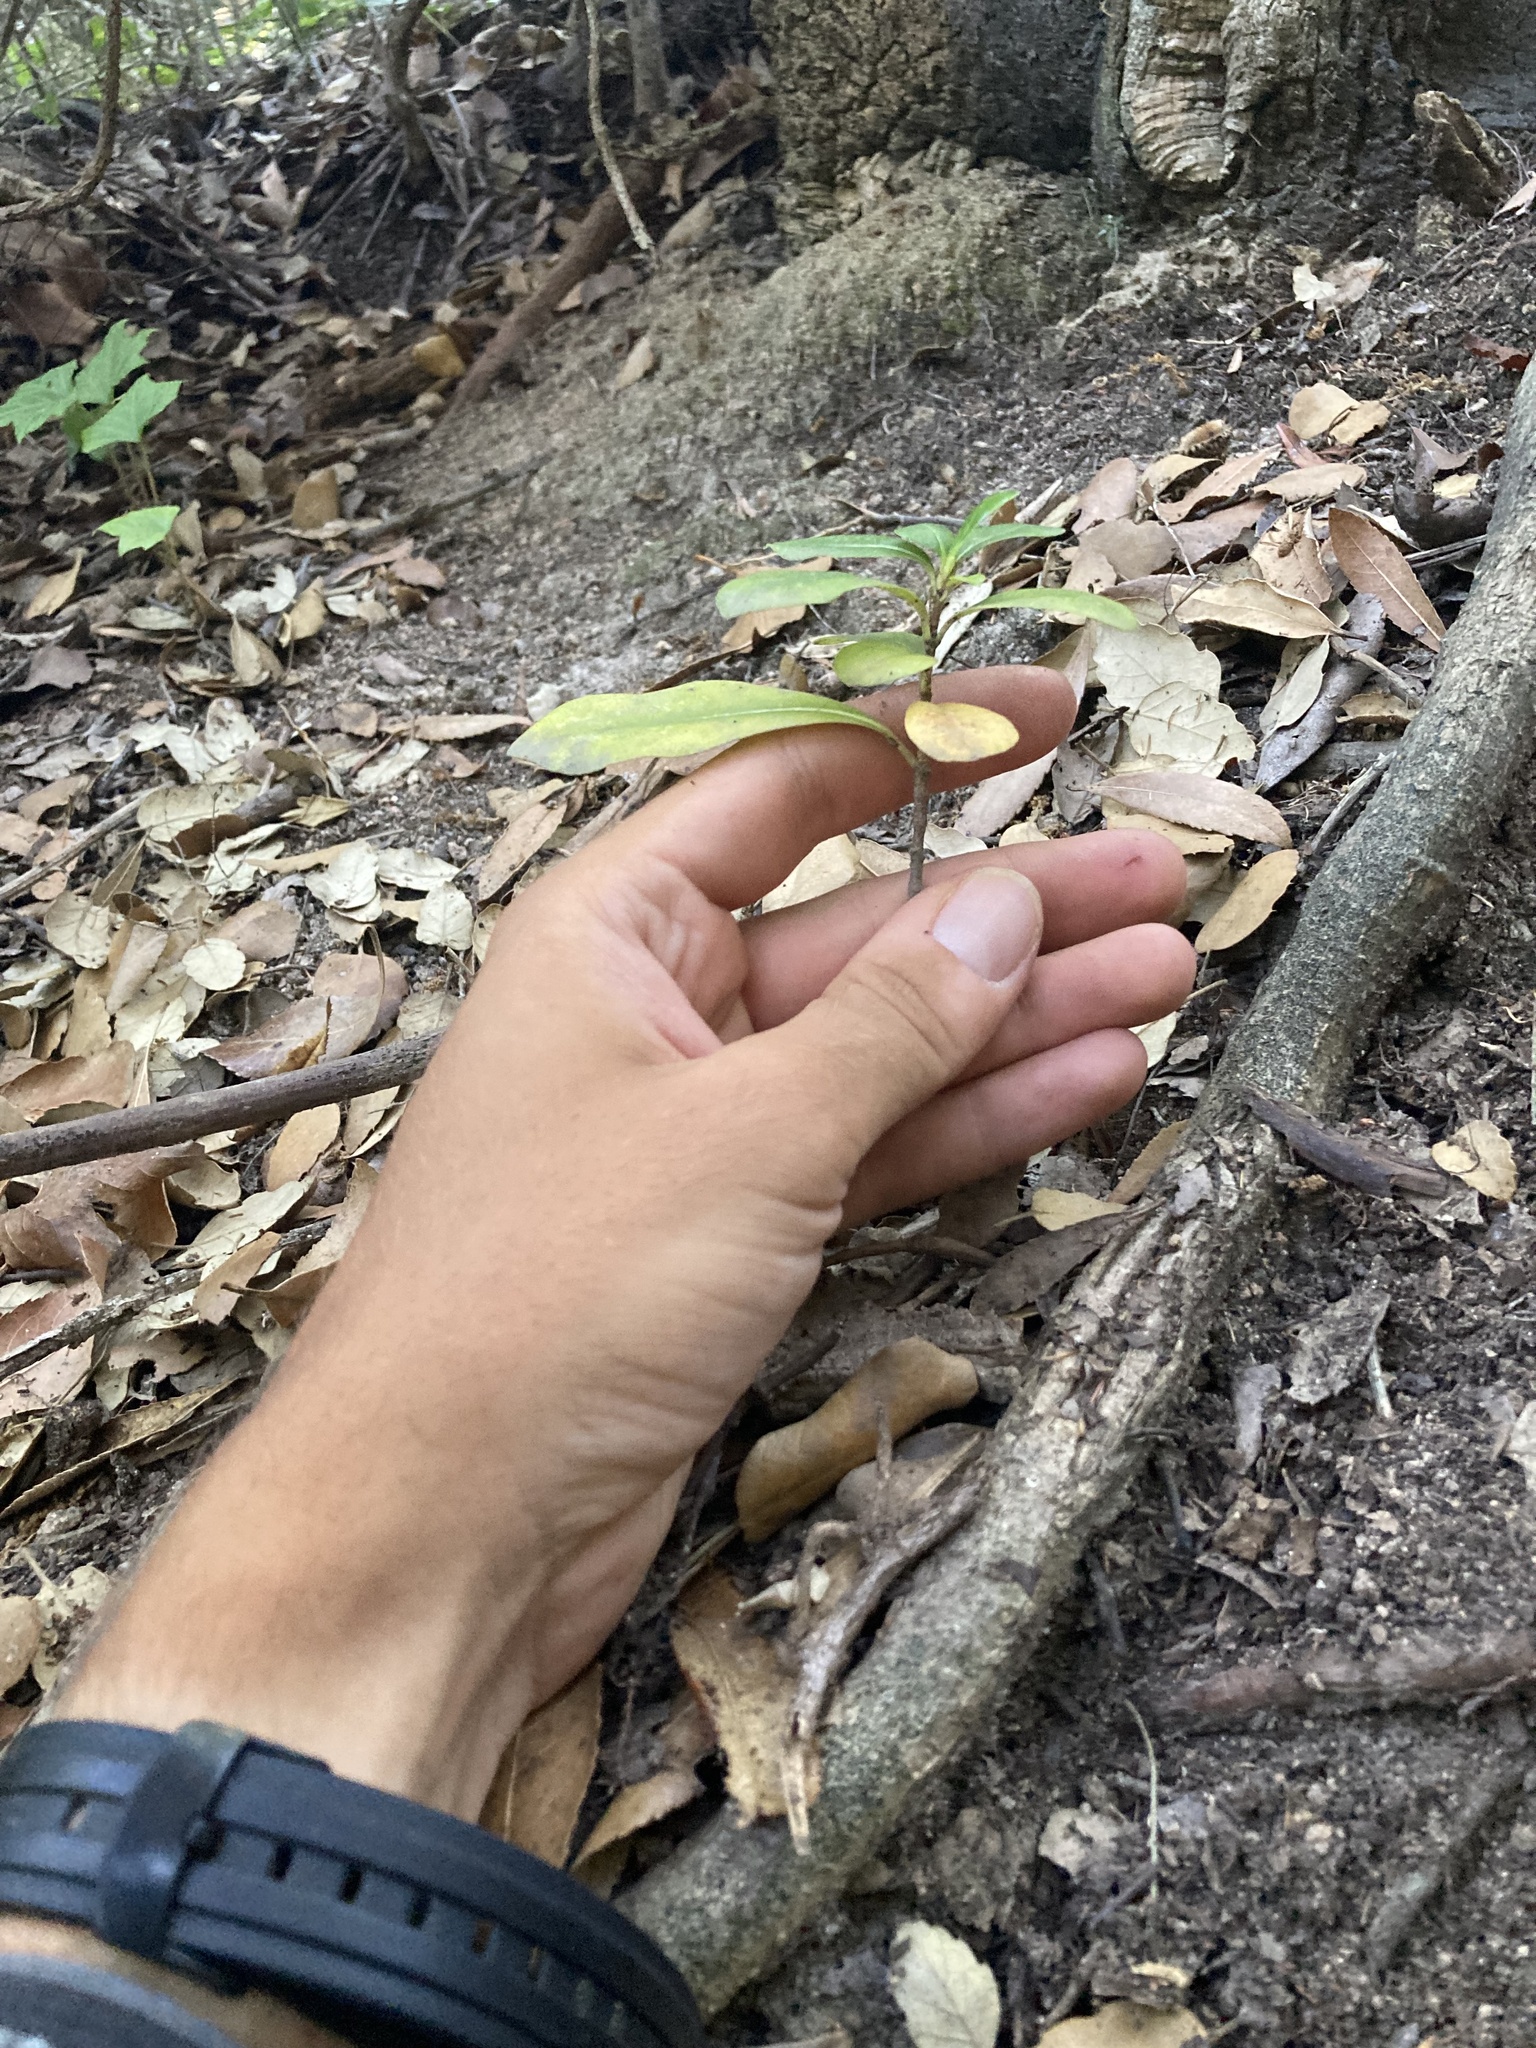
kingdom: Plantae
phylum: Tracheophyta
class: Magnoliopsida
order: Apiales
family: Pittosporaceae
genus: Pittosporum
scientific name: Pittosporum tobira
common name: Japanese cheesewood
